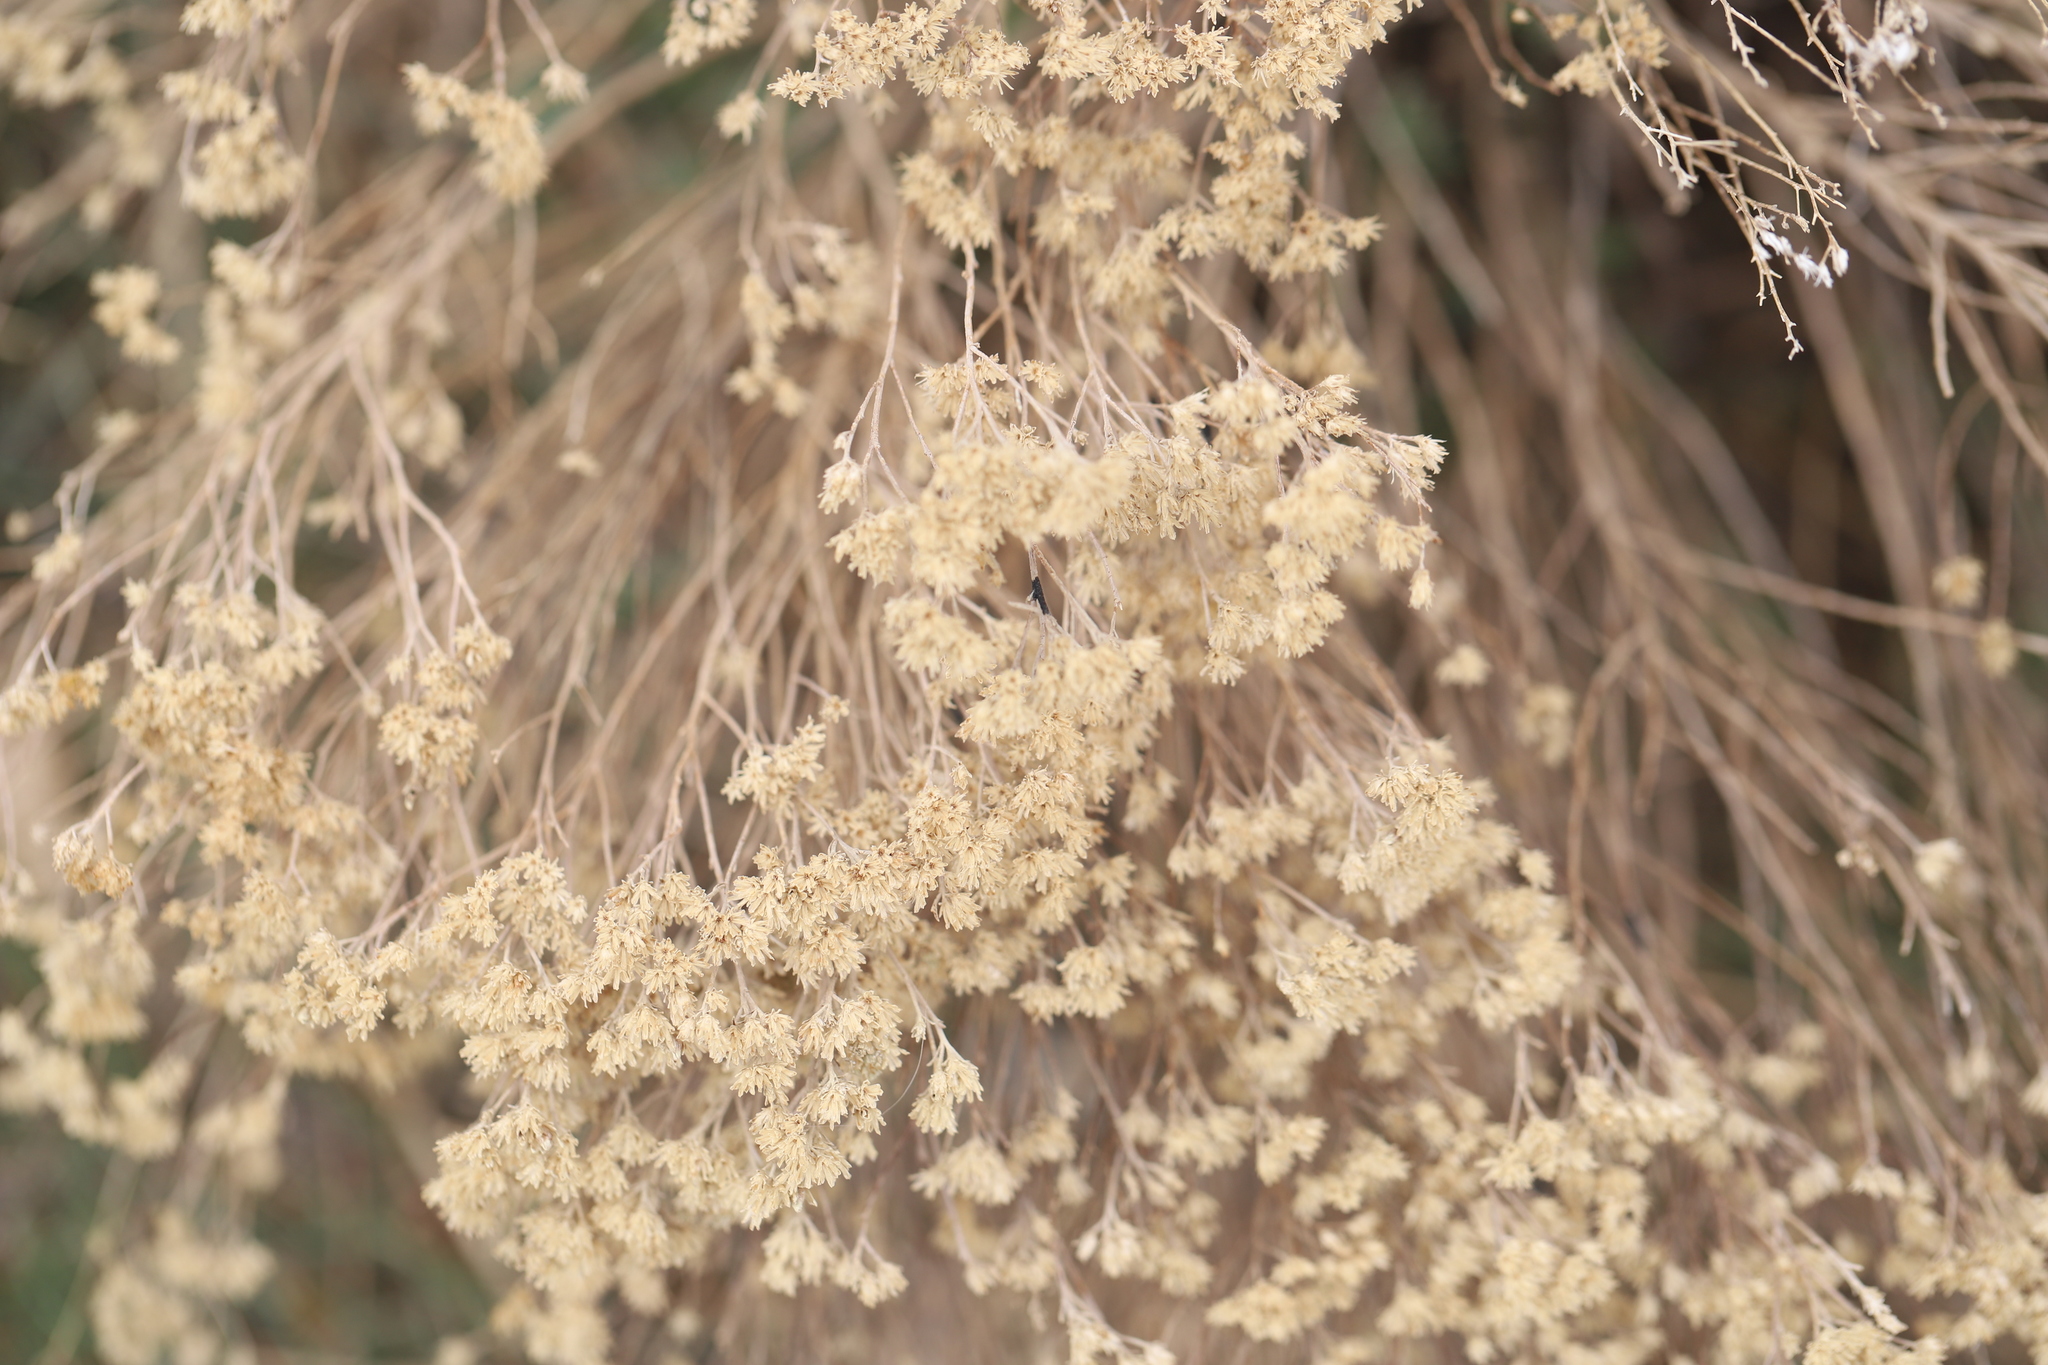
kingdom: Plantae
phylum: Tracheophyta
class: Magnoliopsida
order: Asterales
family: Asteraceae
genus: Ericameria
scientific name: Ericameria nauseosa
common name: Rubber rabbitbrush
